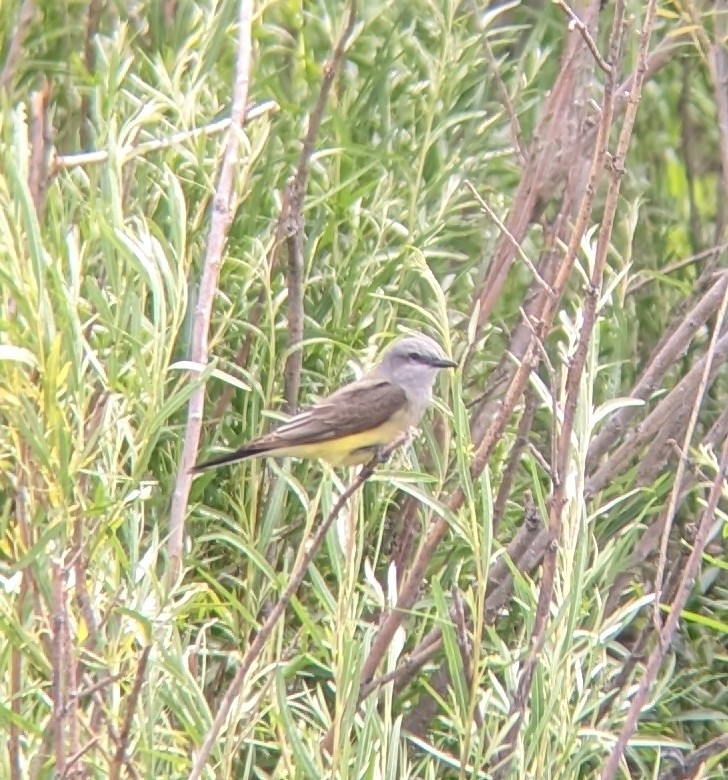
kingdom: Animalia
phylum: Chordata
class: Aves
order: Passeriformes
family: Tyrannidae
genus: Tyrannus
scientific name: Tyrannus verticalis
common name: Western kingbird
